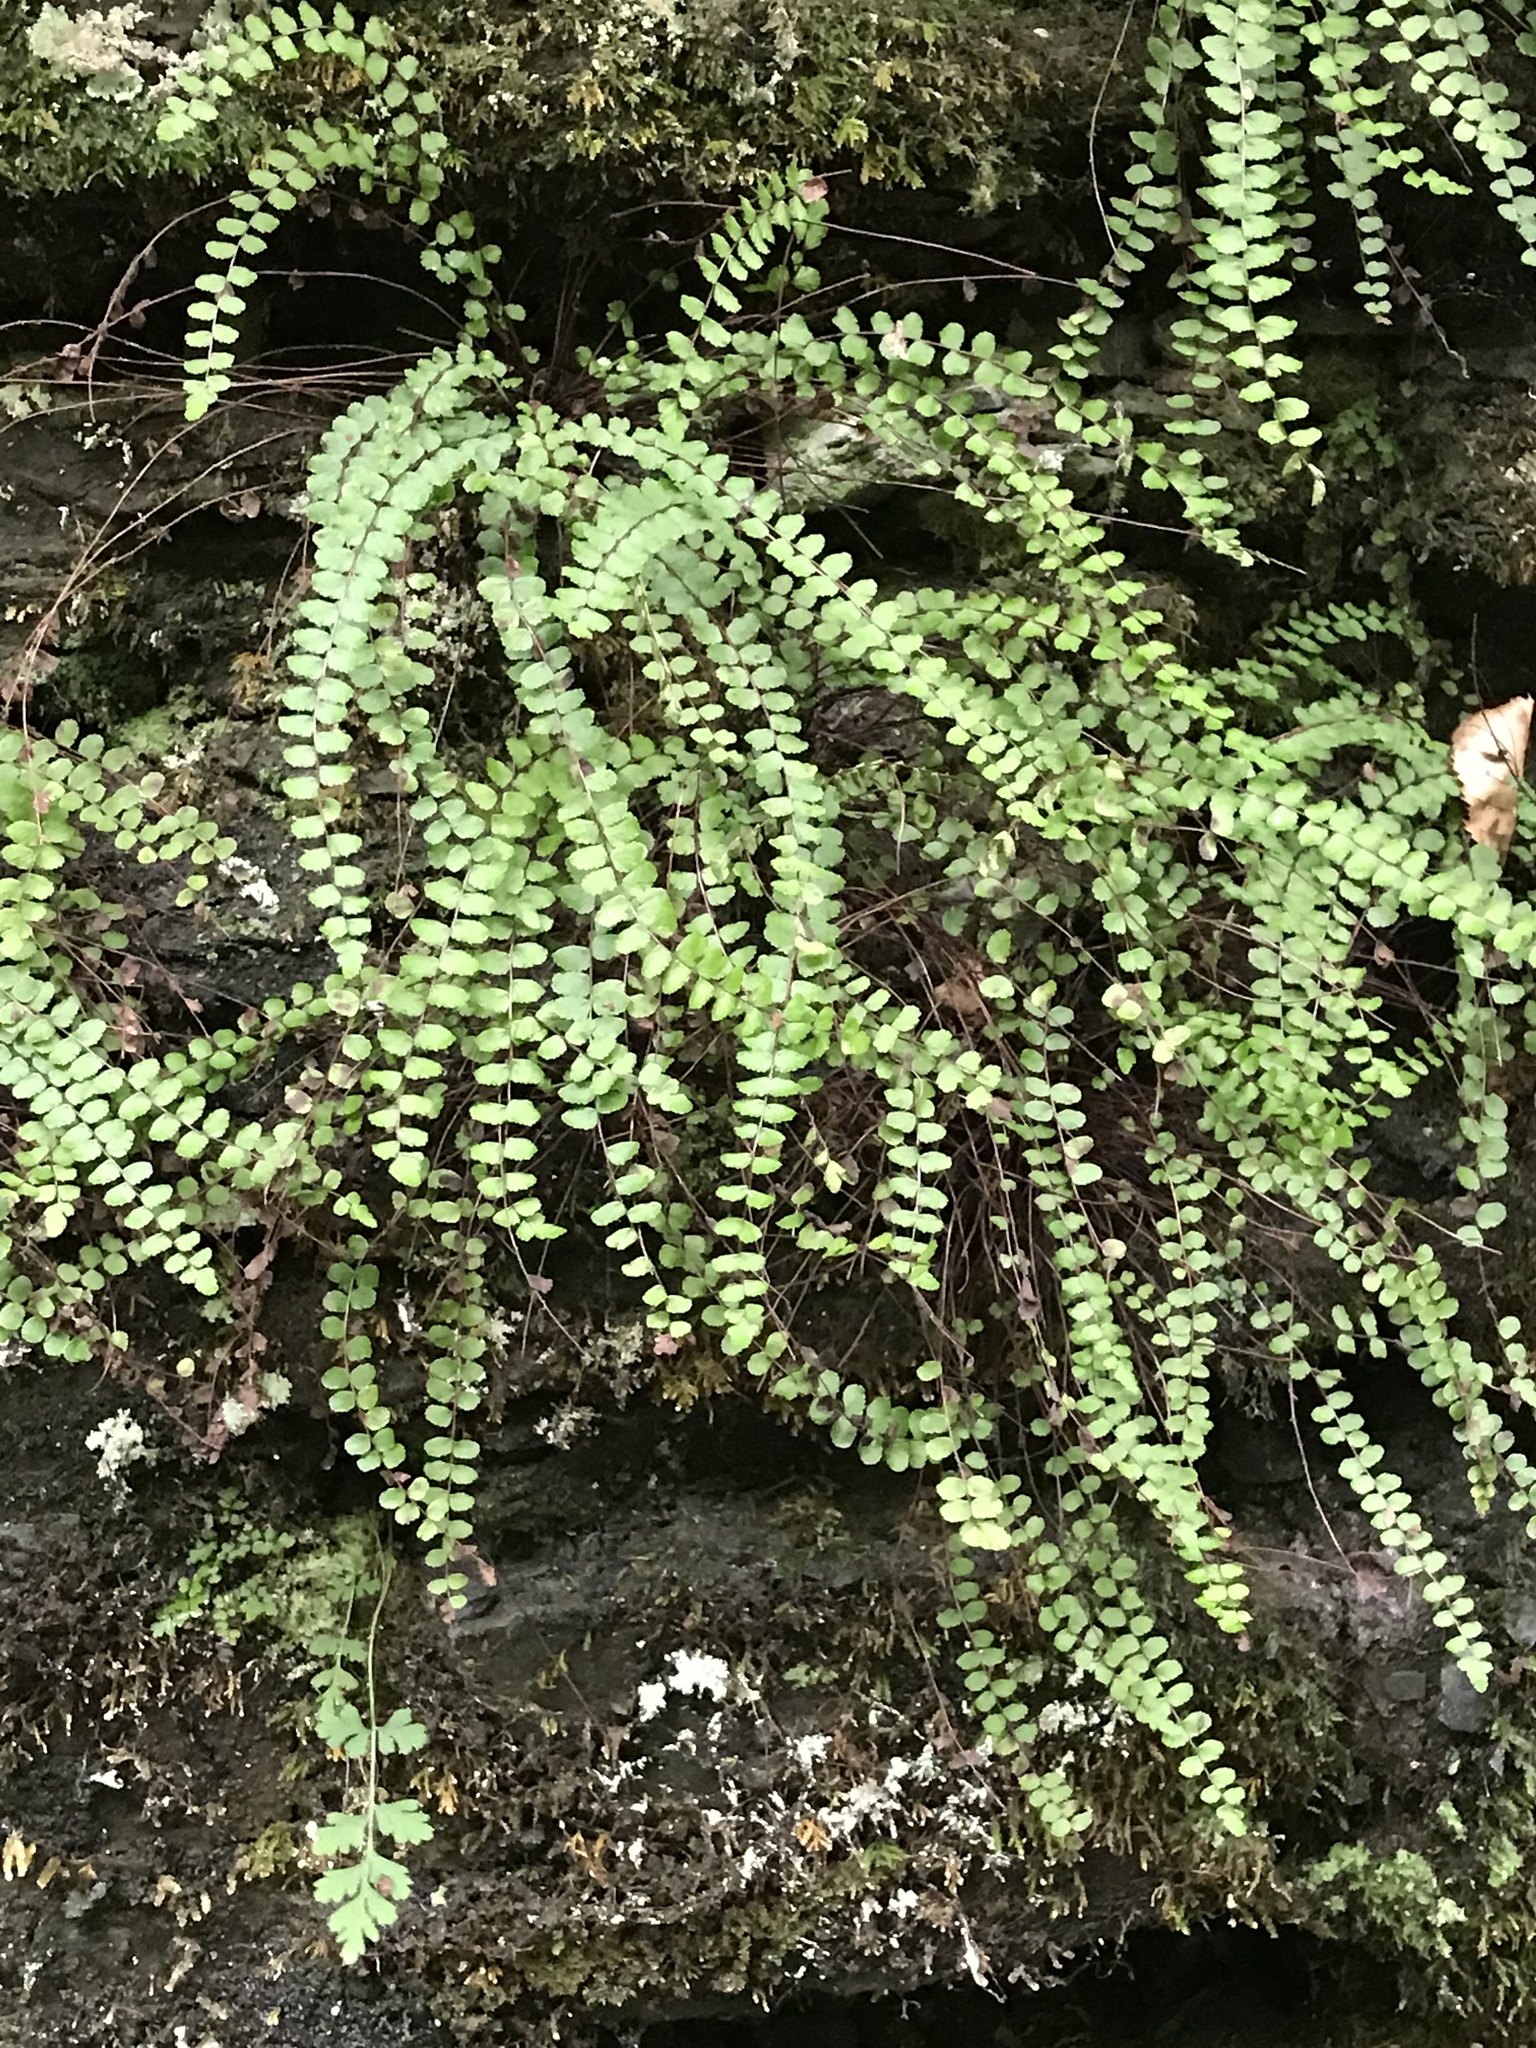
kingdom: Plantae
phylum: Tracheophyta
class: Polypodiopsida
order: Polypodiales
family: Aspleniaceae
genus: Asplenium
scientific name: Asplenium trichomanes
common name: Maidenhair spleenwort
